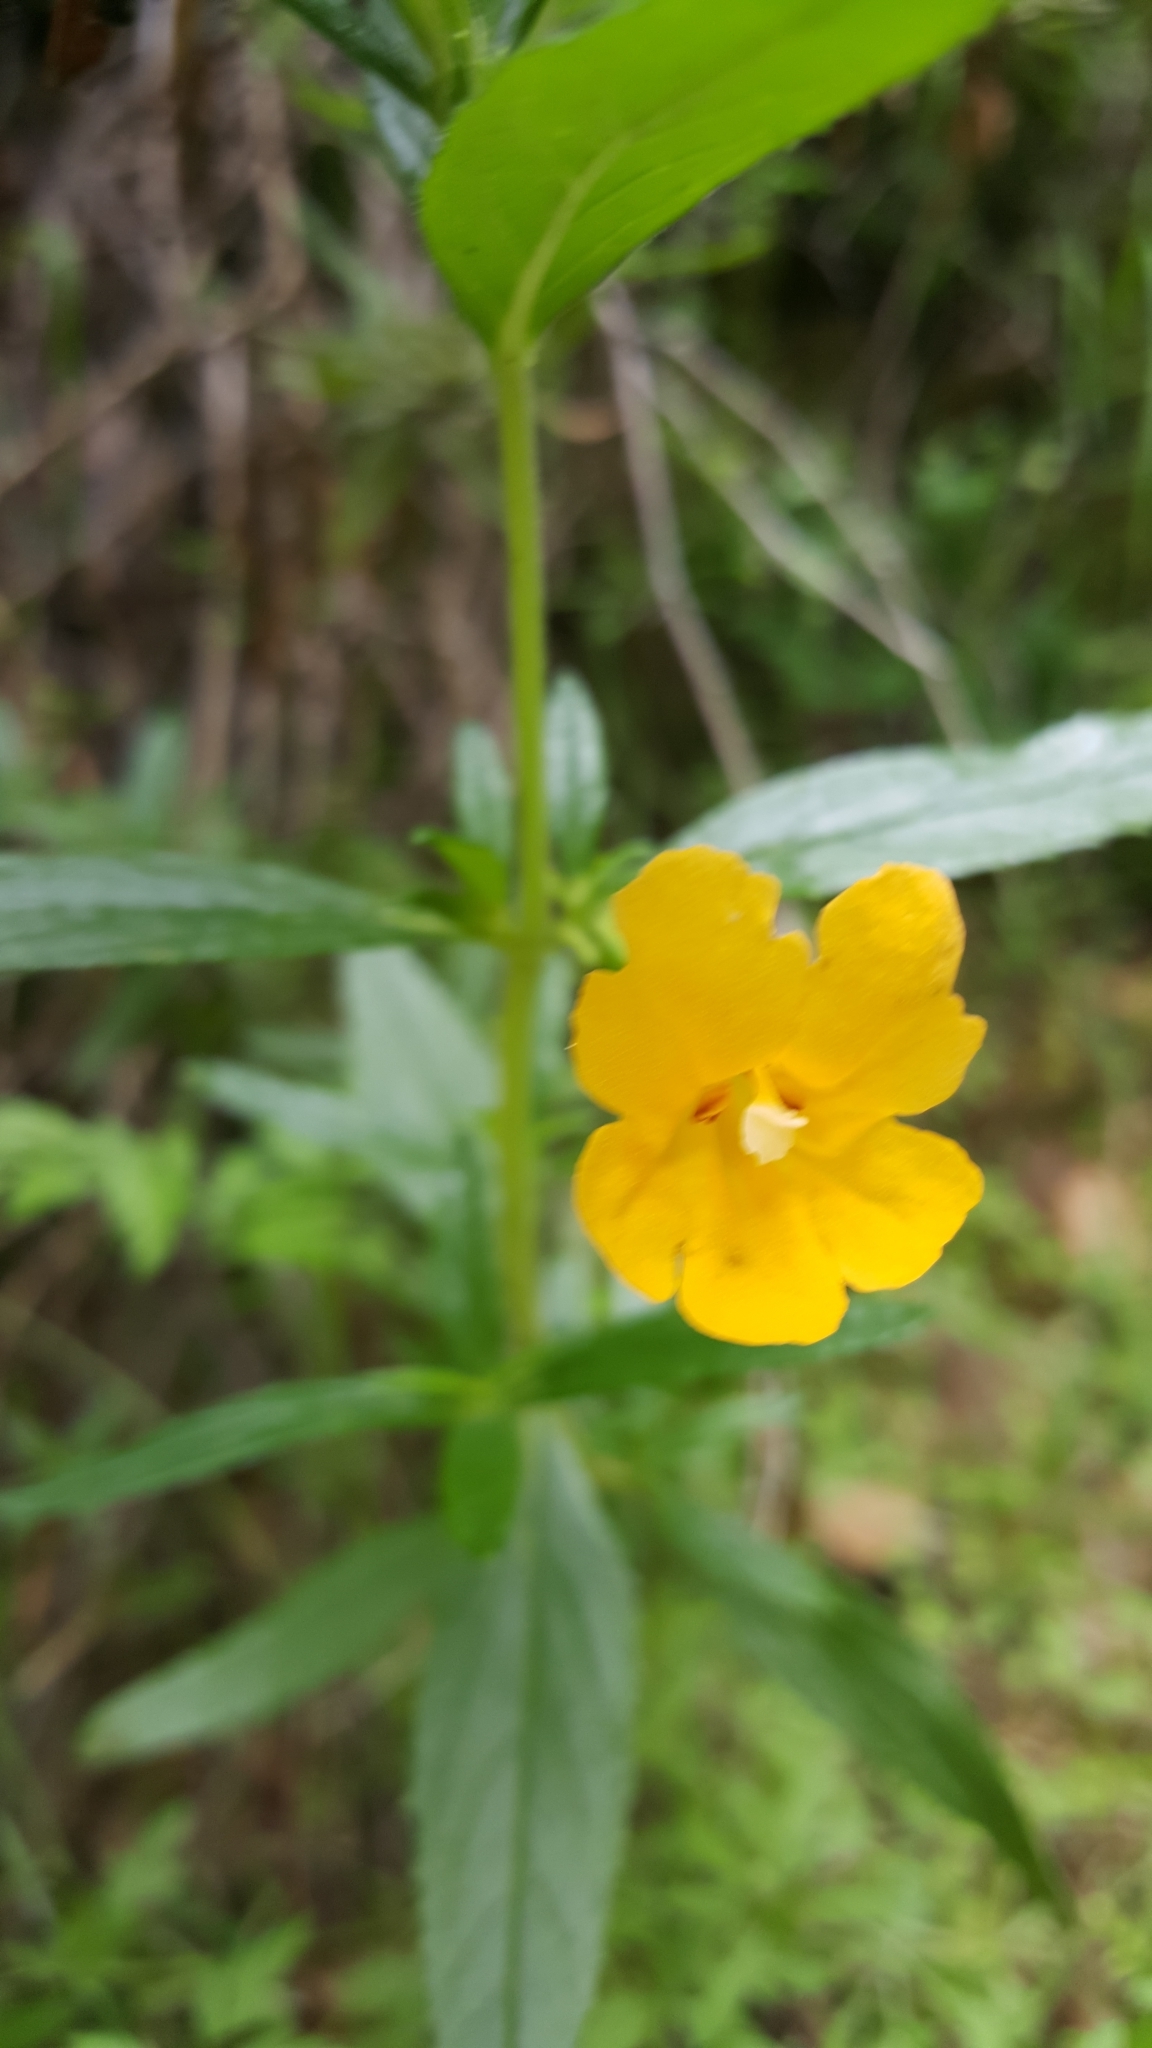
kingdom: Plantae
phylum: Tracheophyta
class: Magnoliopsida
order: Lamiales
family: Phrymaceae
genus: Diplacus
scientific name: Diplacus aurantiacus
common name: Bush monkey-flower
